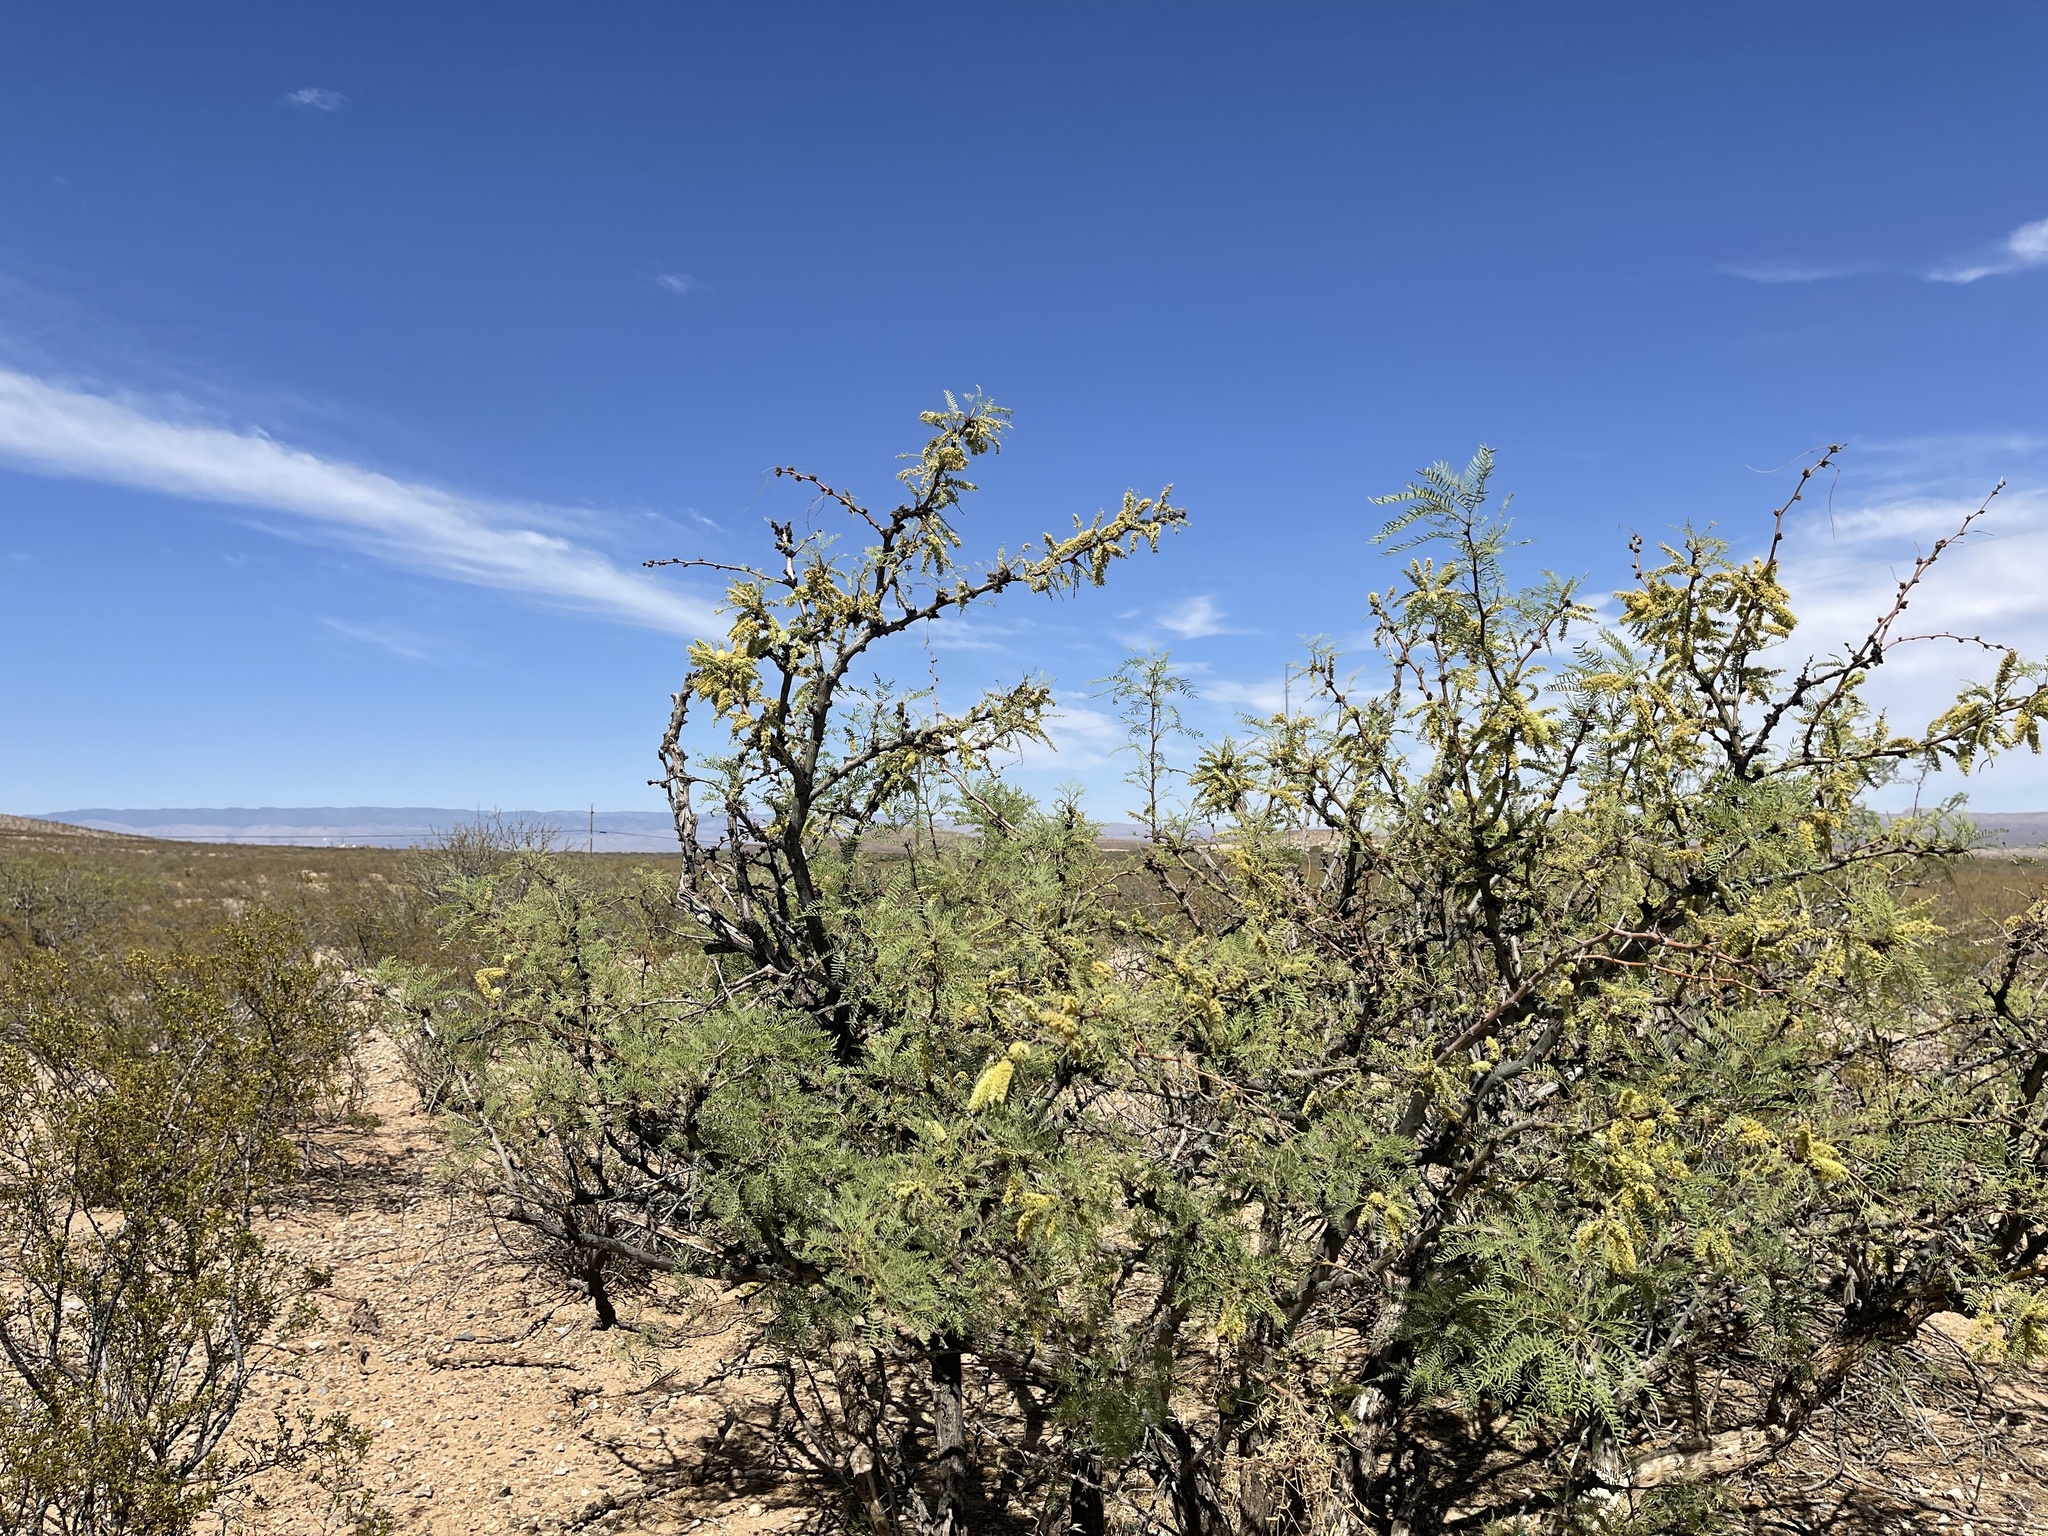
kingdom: Plantae
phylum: Tracheophyta
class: Magnoliopsida
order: Fabales
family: Fabaceae
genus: Prosopis
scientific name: Prosopis glandulosa
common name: Honey mesquite
